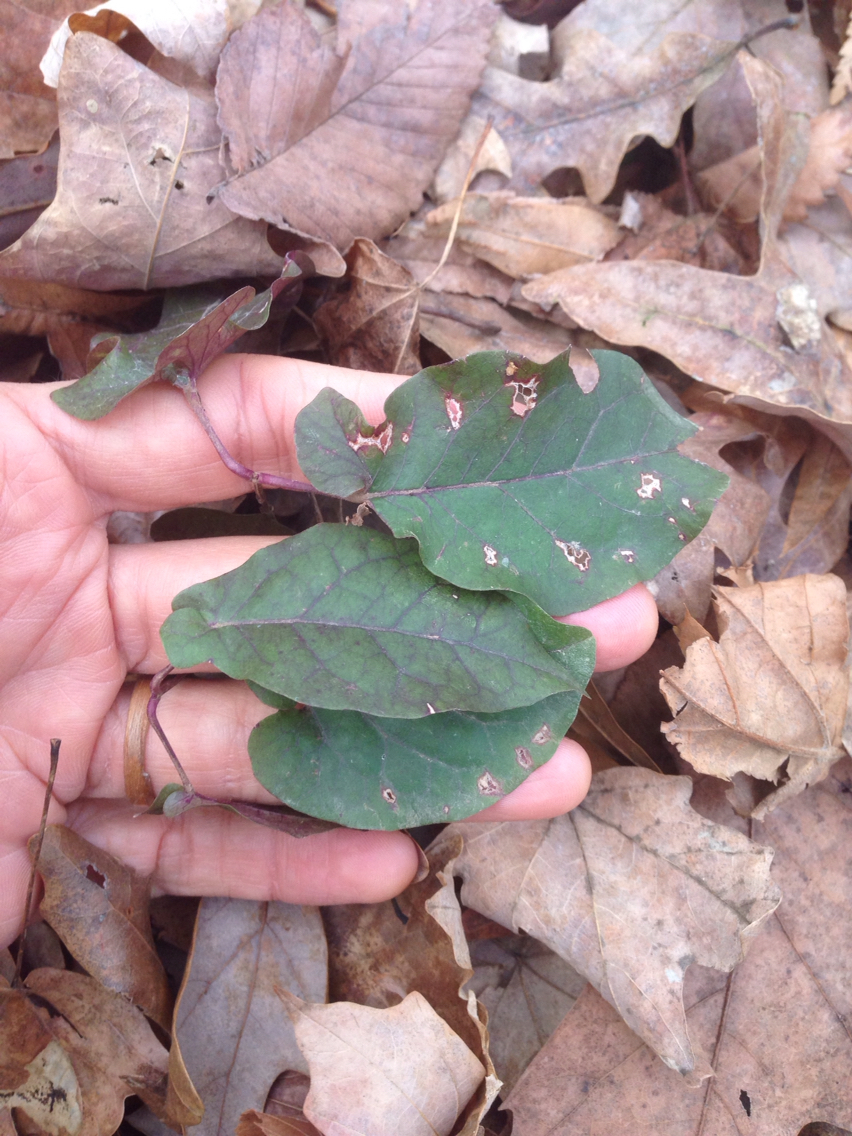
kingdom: Plantae
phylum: Tracheophyta
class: Magnoliopsida
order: Lamiales
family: Bignoniaceae
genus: Bignonia
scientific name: Bignonia capreolata
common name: Crossvine
